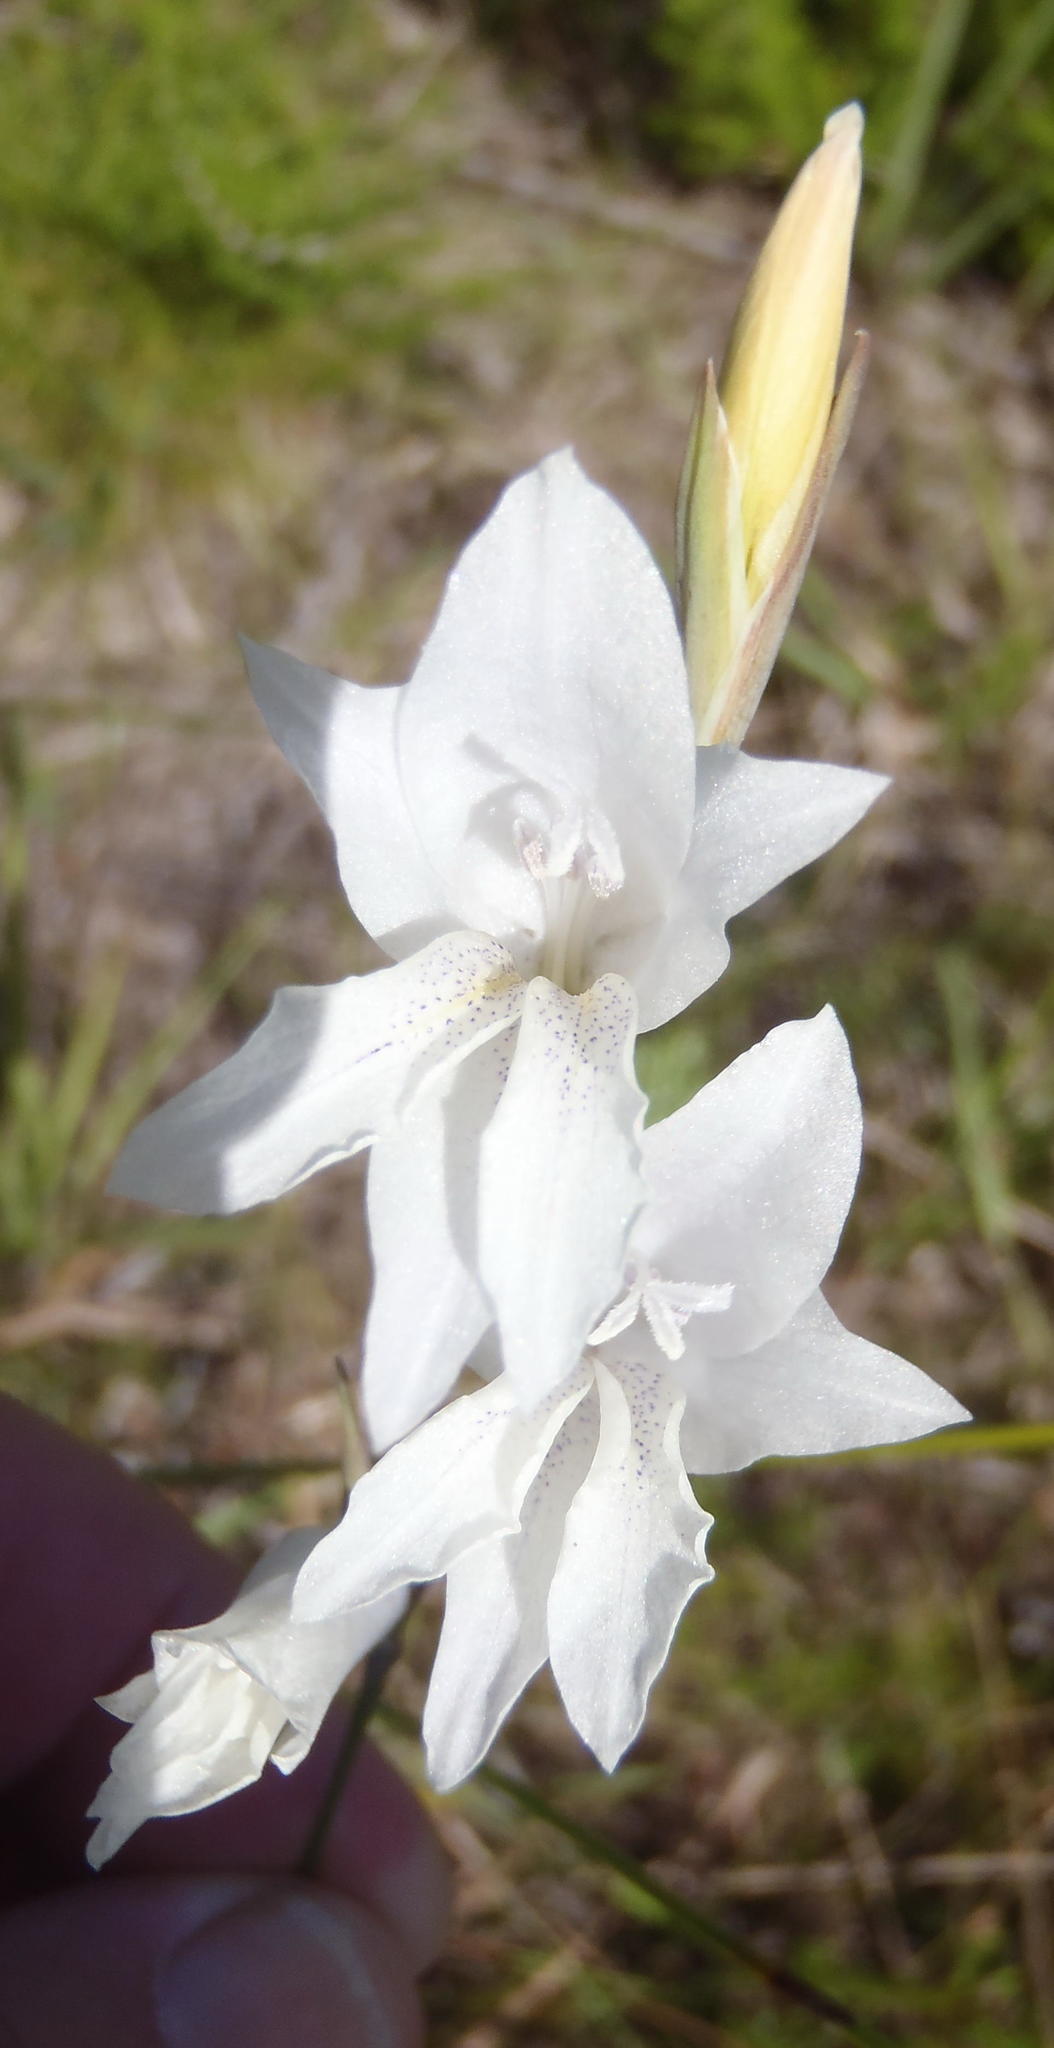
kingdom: Plantae
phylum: Tracheophyta
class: Liliopsida
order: Asparagales
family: Iridaceae
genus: Gladiolus
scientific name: Gladiolus vaginatus
